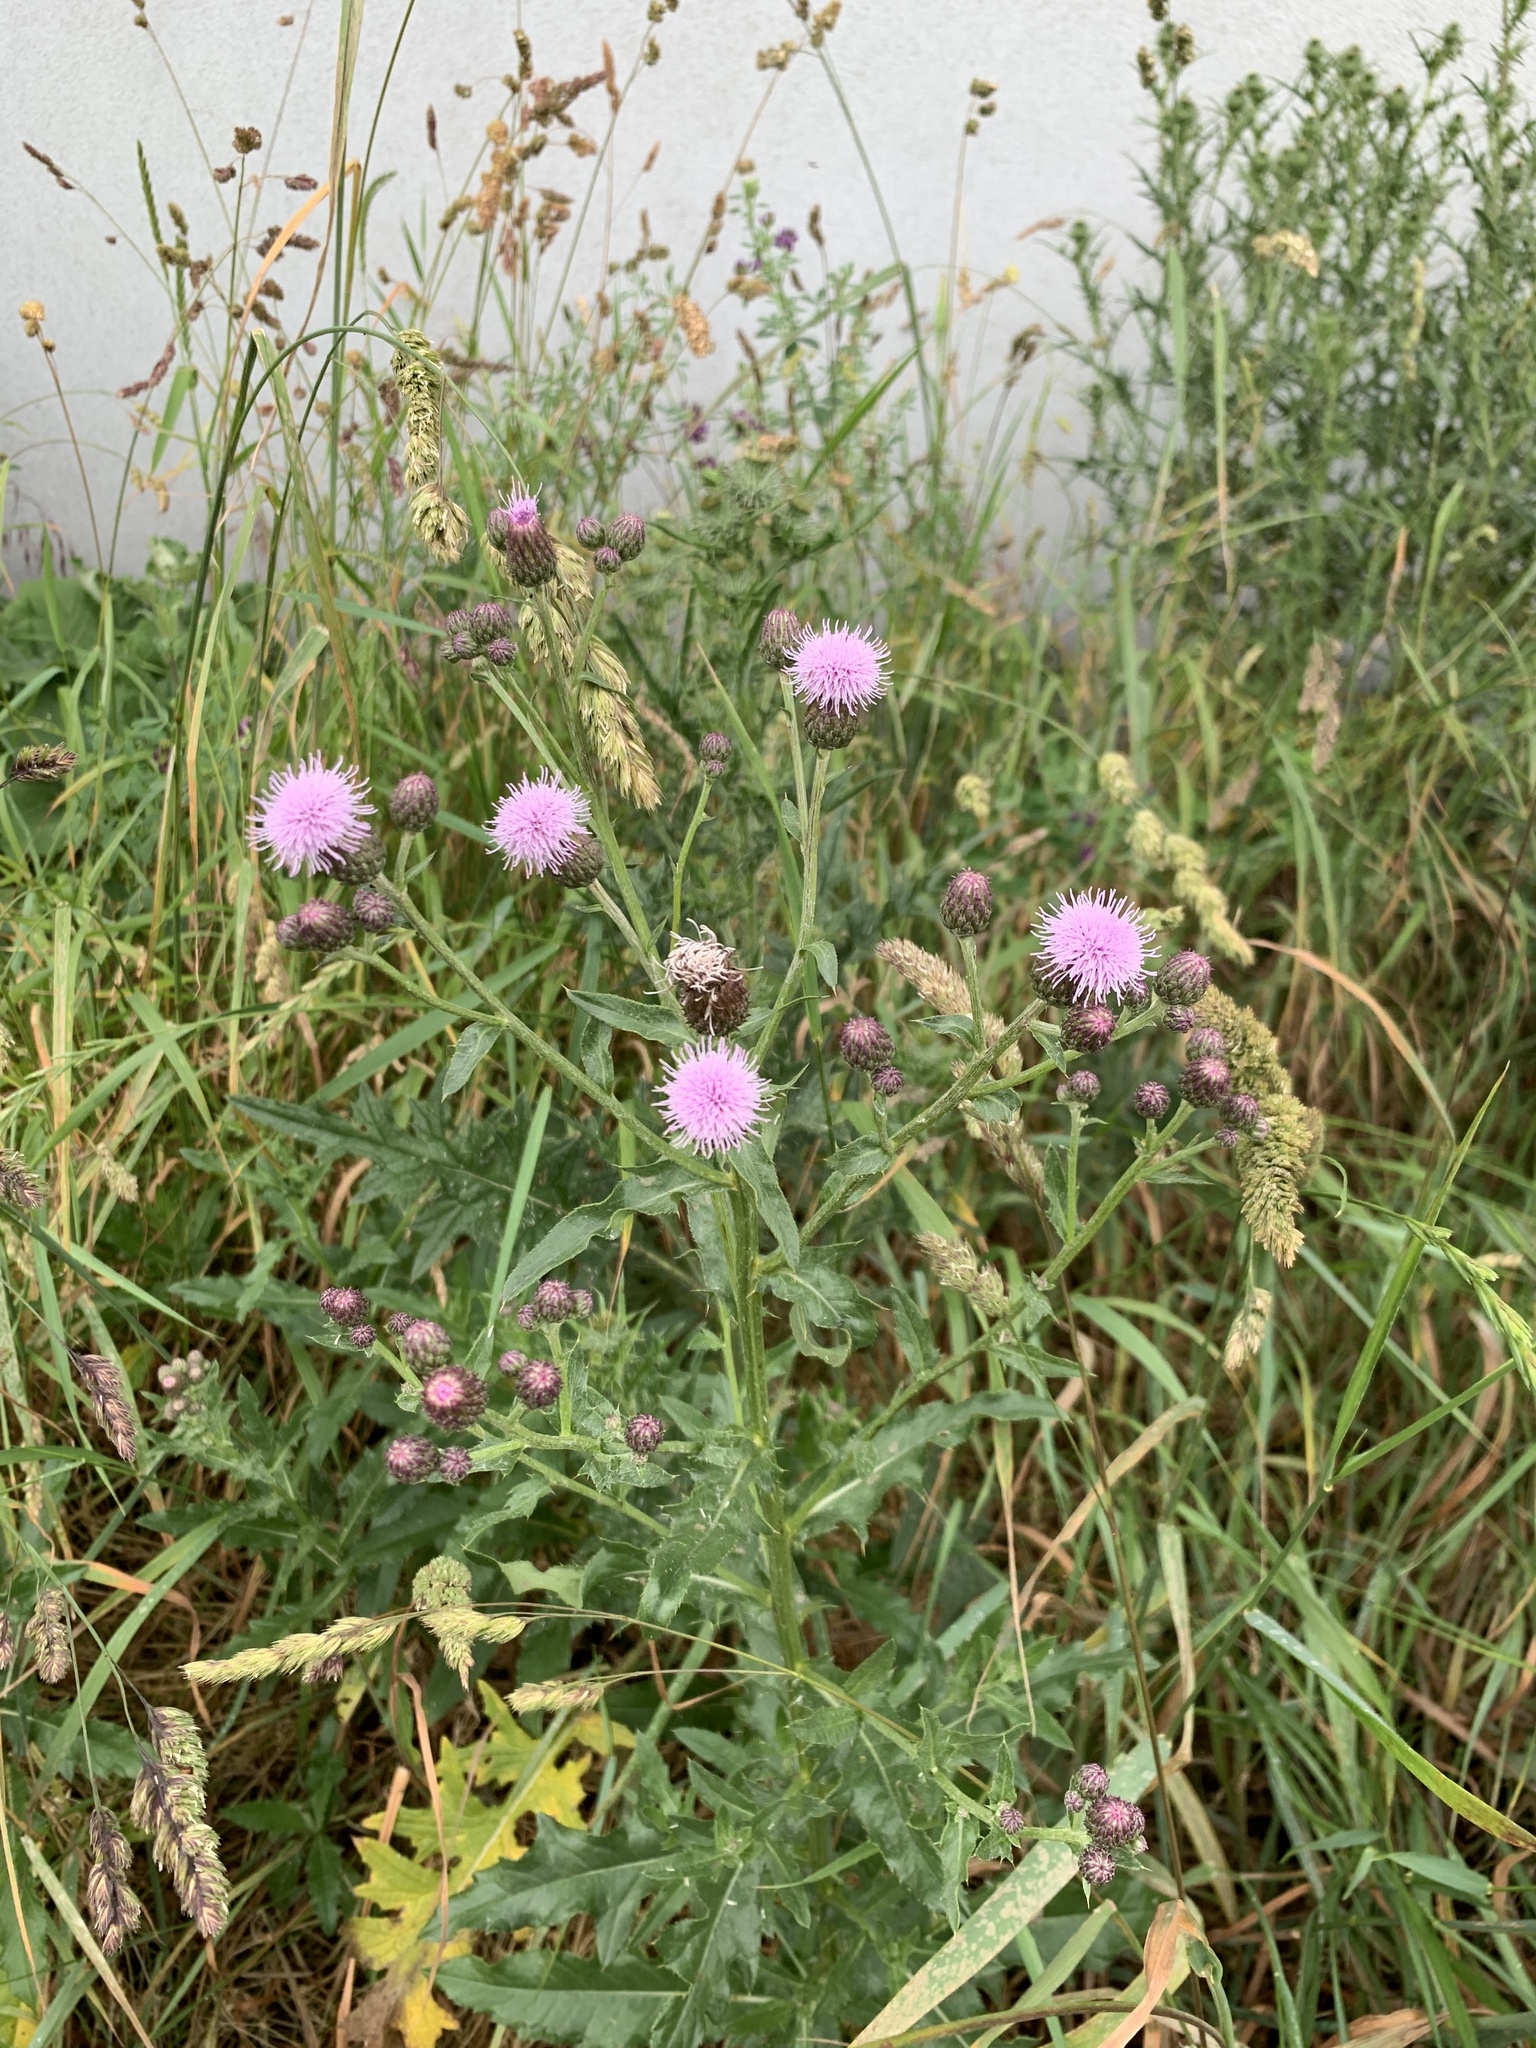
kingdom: Plantae
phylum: Tracheophyta
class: Magnoliopsida
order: Asterales
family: Asteraceae
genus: Cirsium
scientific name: Cirsium arvense
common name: Creeping thistle
